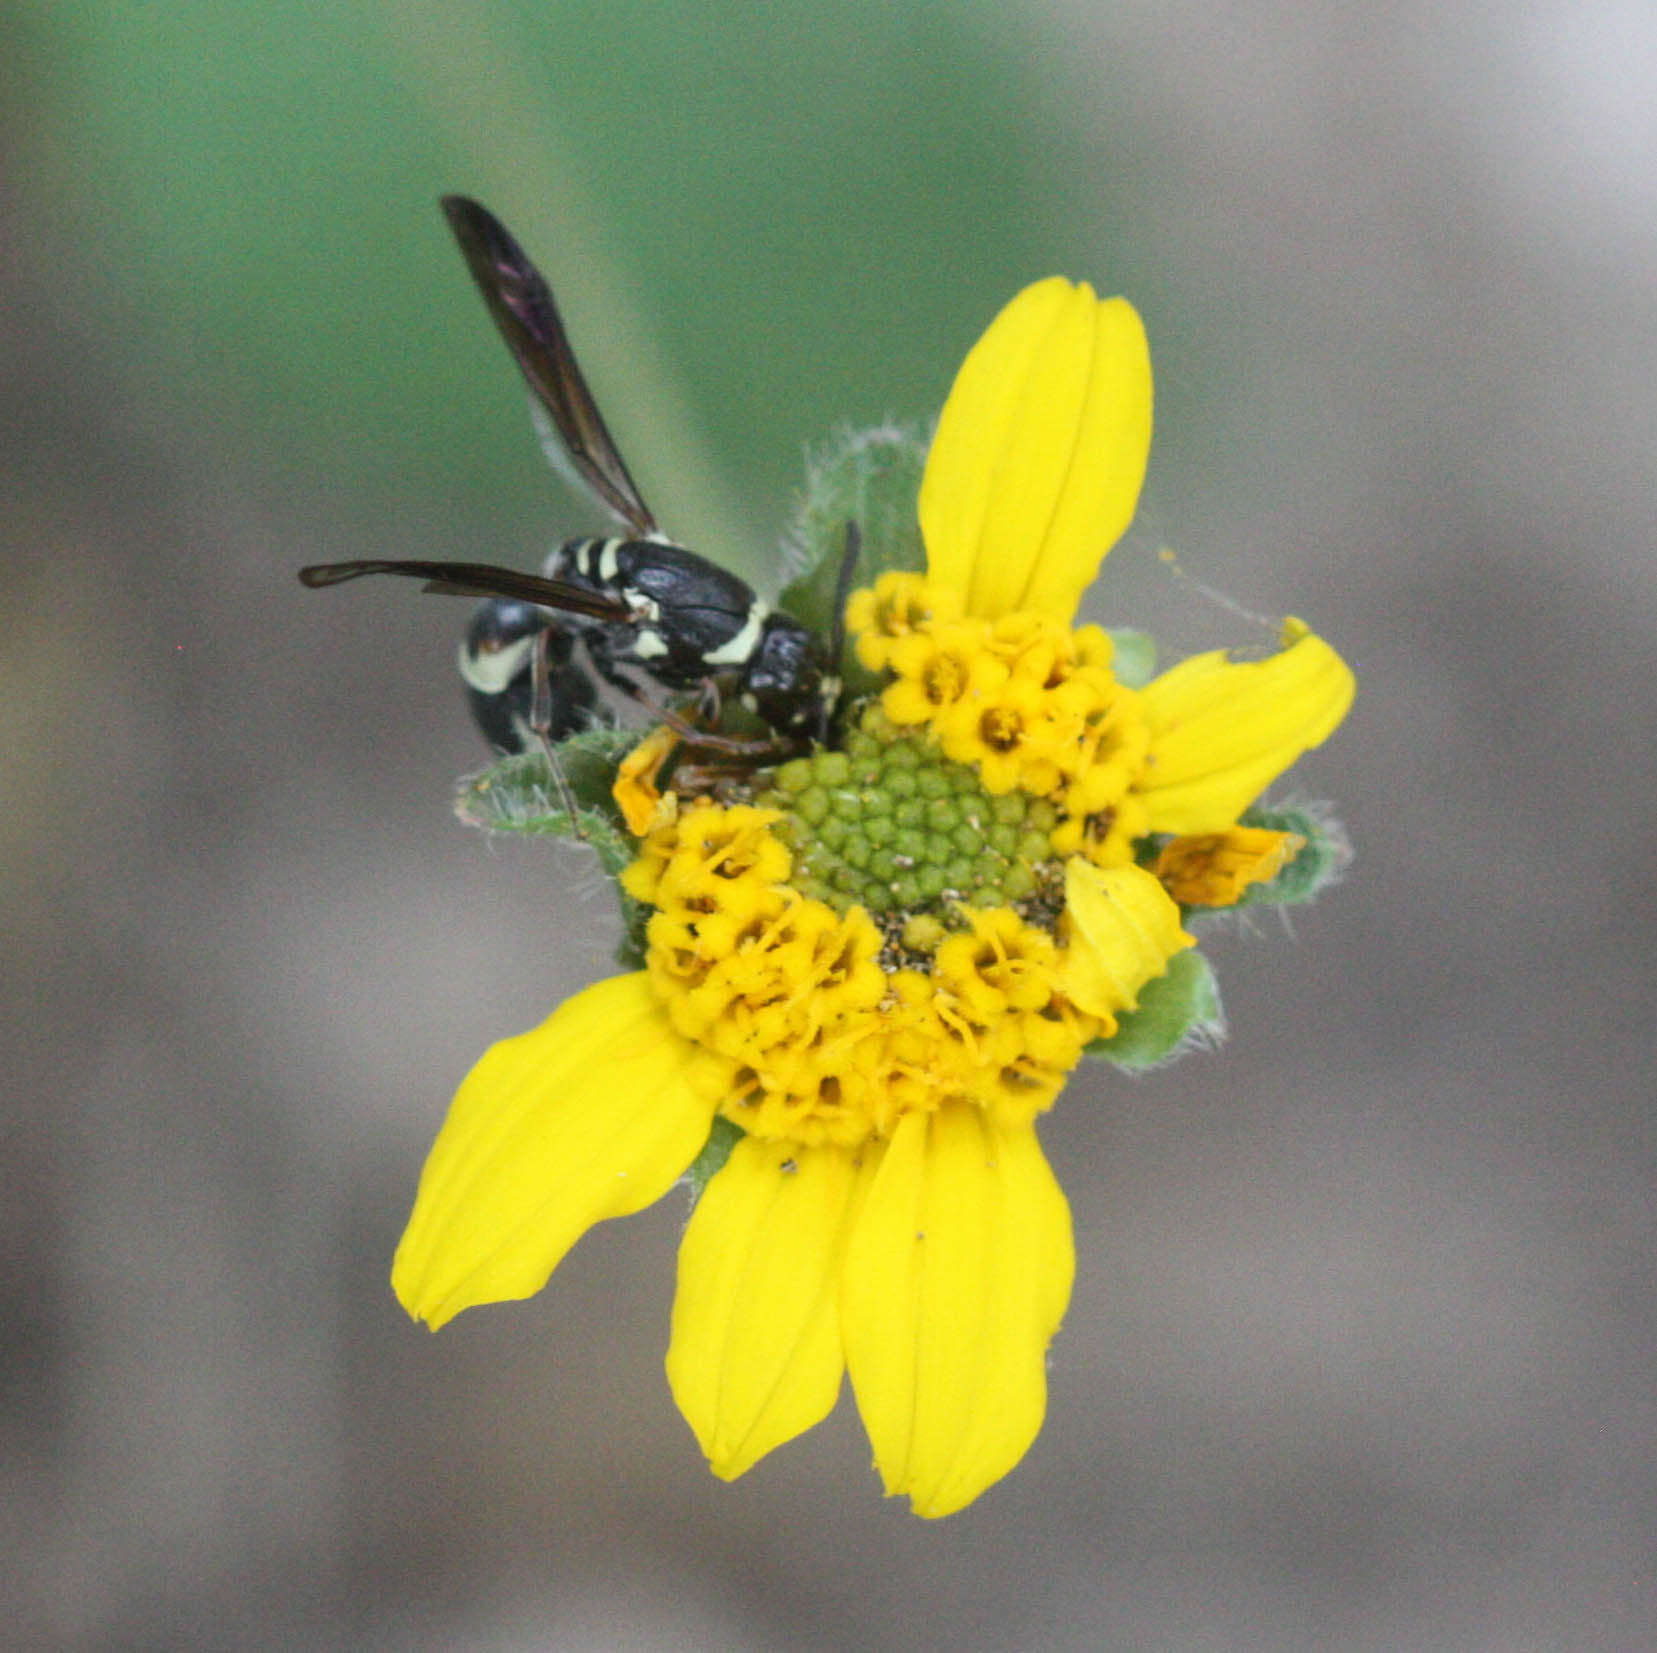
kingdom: Animalia
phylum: Arthropoda
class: Insecta
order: Hymenoptera
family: Eumenidae
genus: Cephalodynerus
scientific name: Cephalodynerus deformiceps
